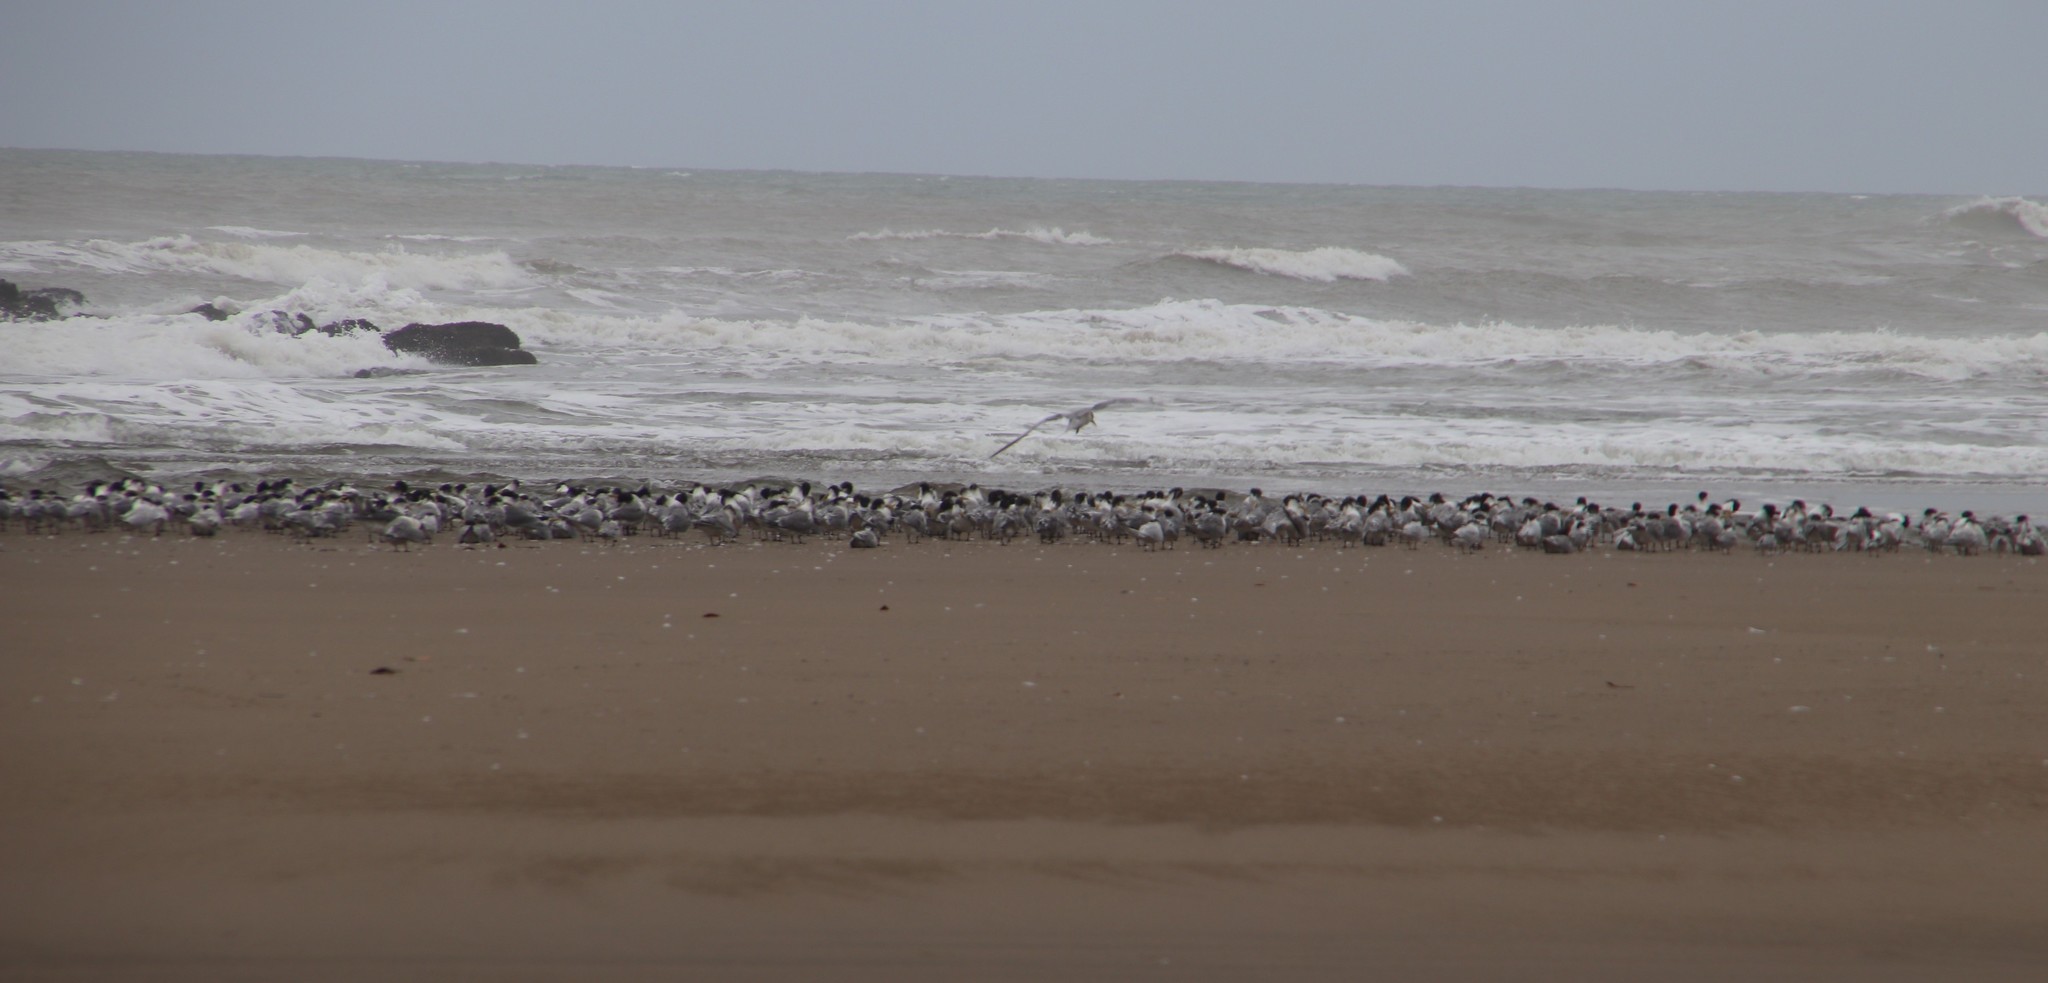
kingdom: Animalia
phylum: Chordata
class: Aves
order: Charadriiformes
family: Laridae
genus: Thalasseus
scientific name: Thalasseus bergii
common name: Greater crested tern
